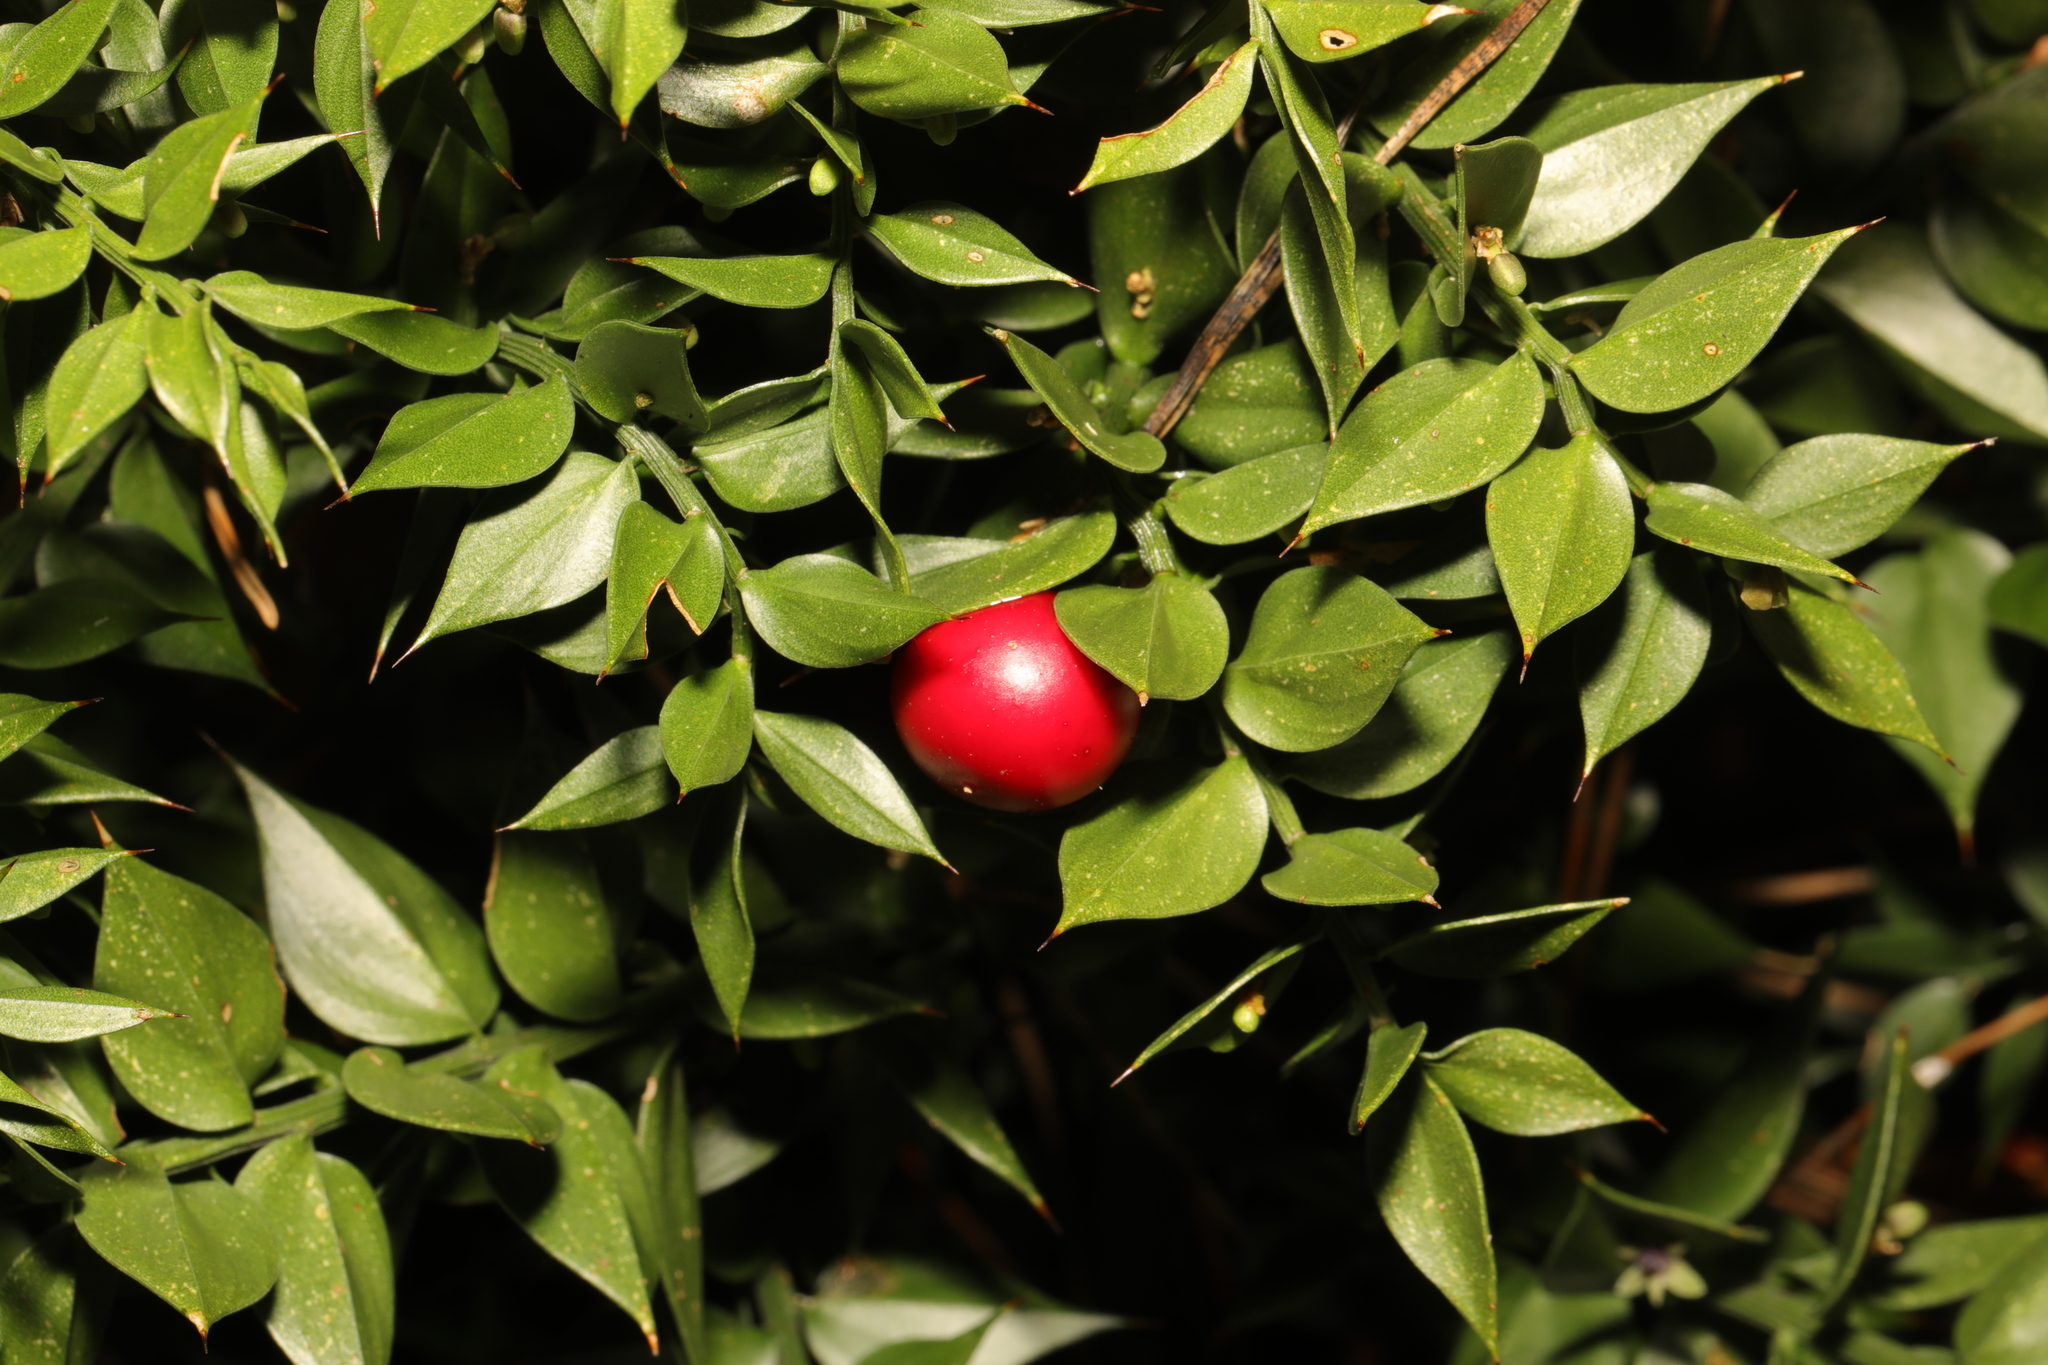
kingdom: Plantae
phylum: Tracheophyta
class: Liliopsida
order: Asparagales
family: Asparagaceae
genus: Ruscus
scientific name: Ruscus aculeatus
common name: Butcher's-broom
